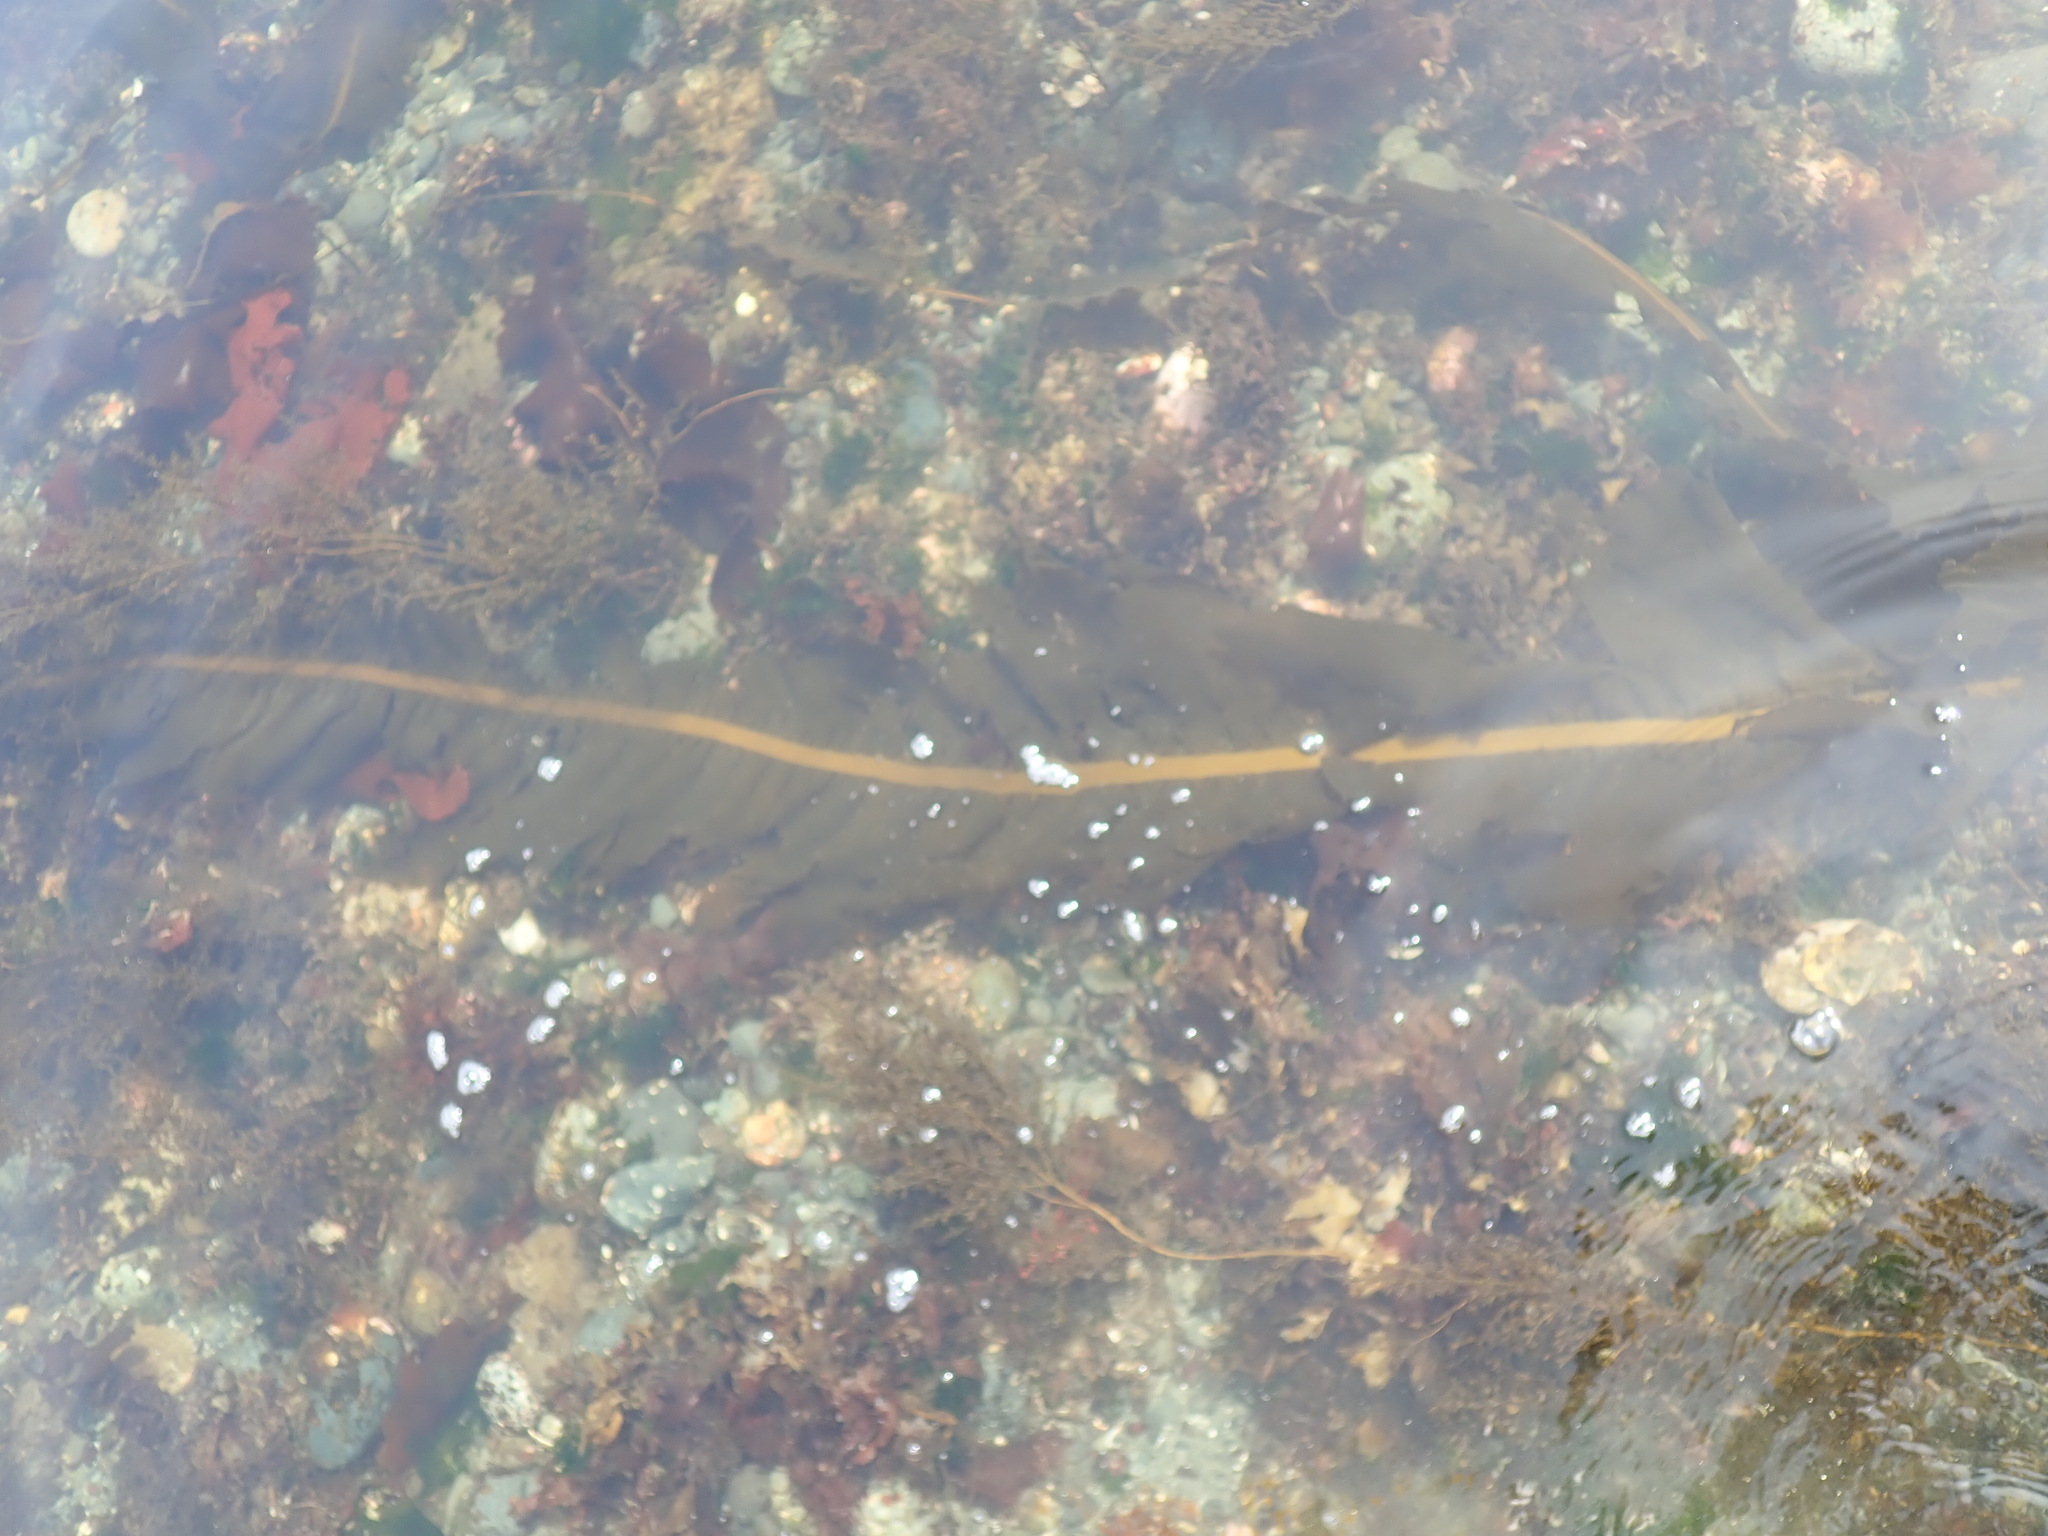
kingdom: Chromista
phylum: Ochrophyta
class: Phaeophyceae
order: Laminariales
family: Alariaceae
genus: Alaria
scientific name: Alaria marginata
